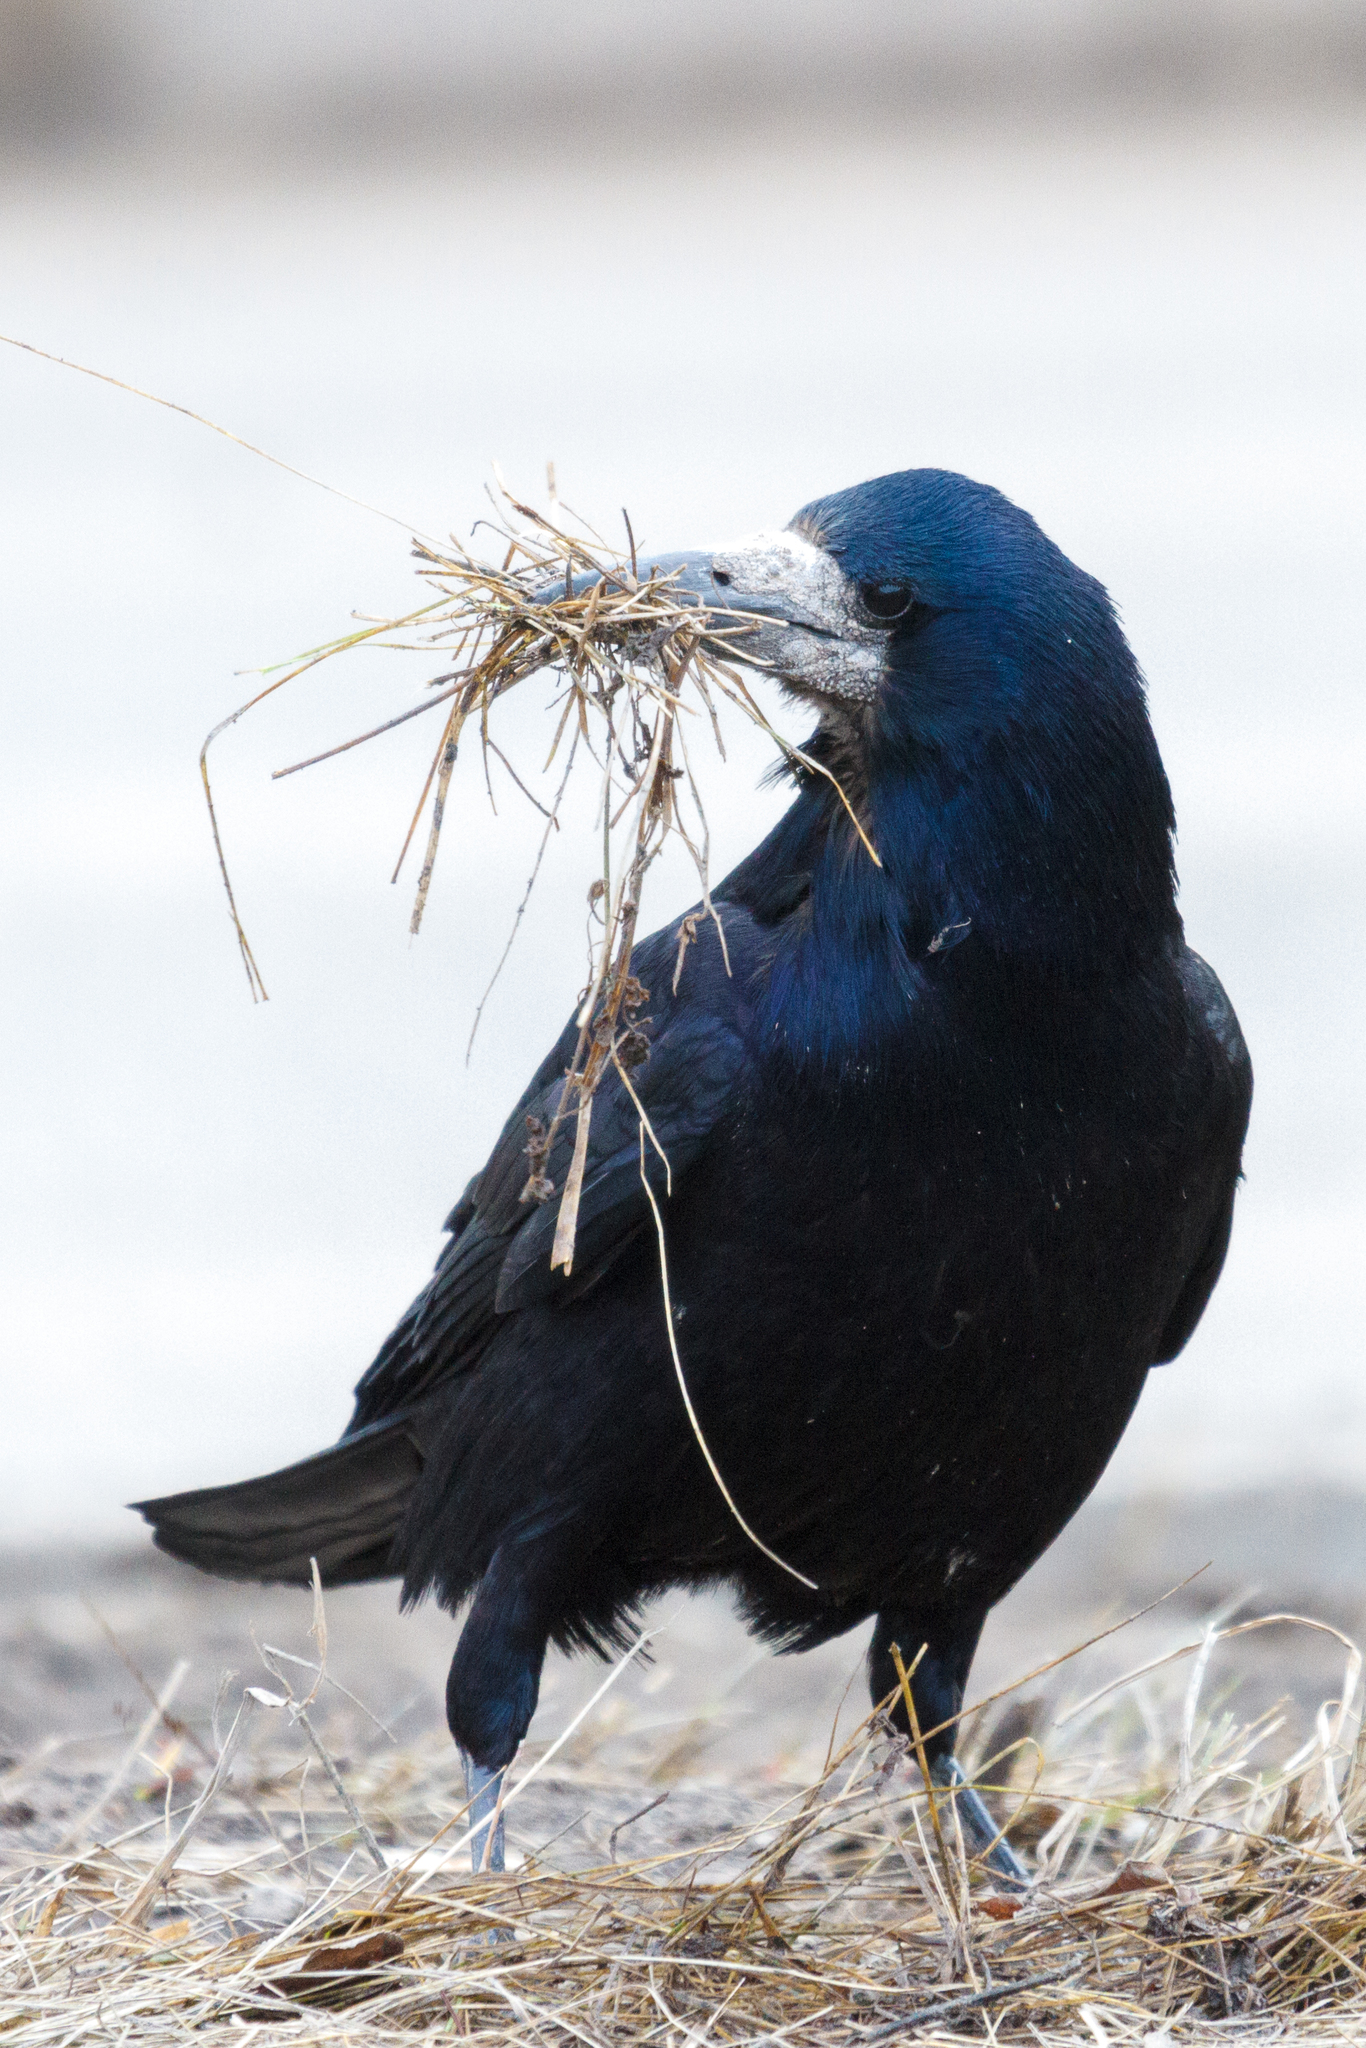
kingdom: Animalia
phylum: Chordata
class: Aves
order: Passeriformes
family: Corvidae
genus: Corvus
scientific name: Corvus frugilegus
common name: Rook
